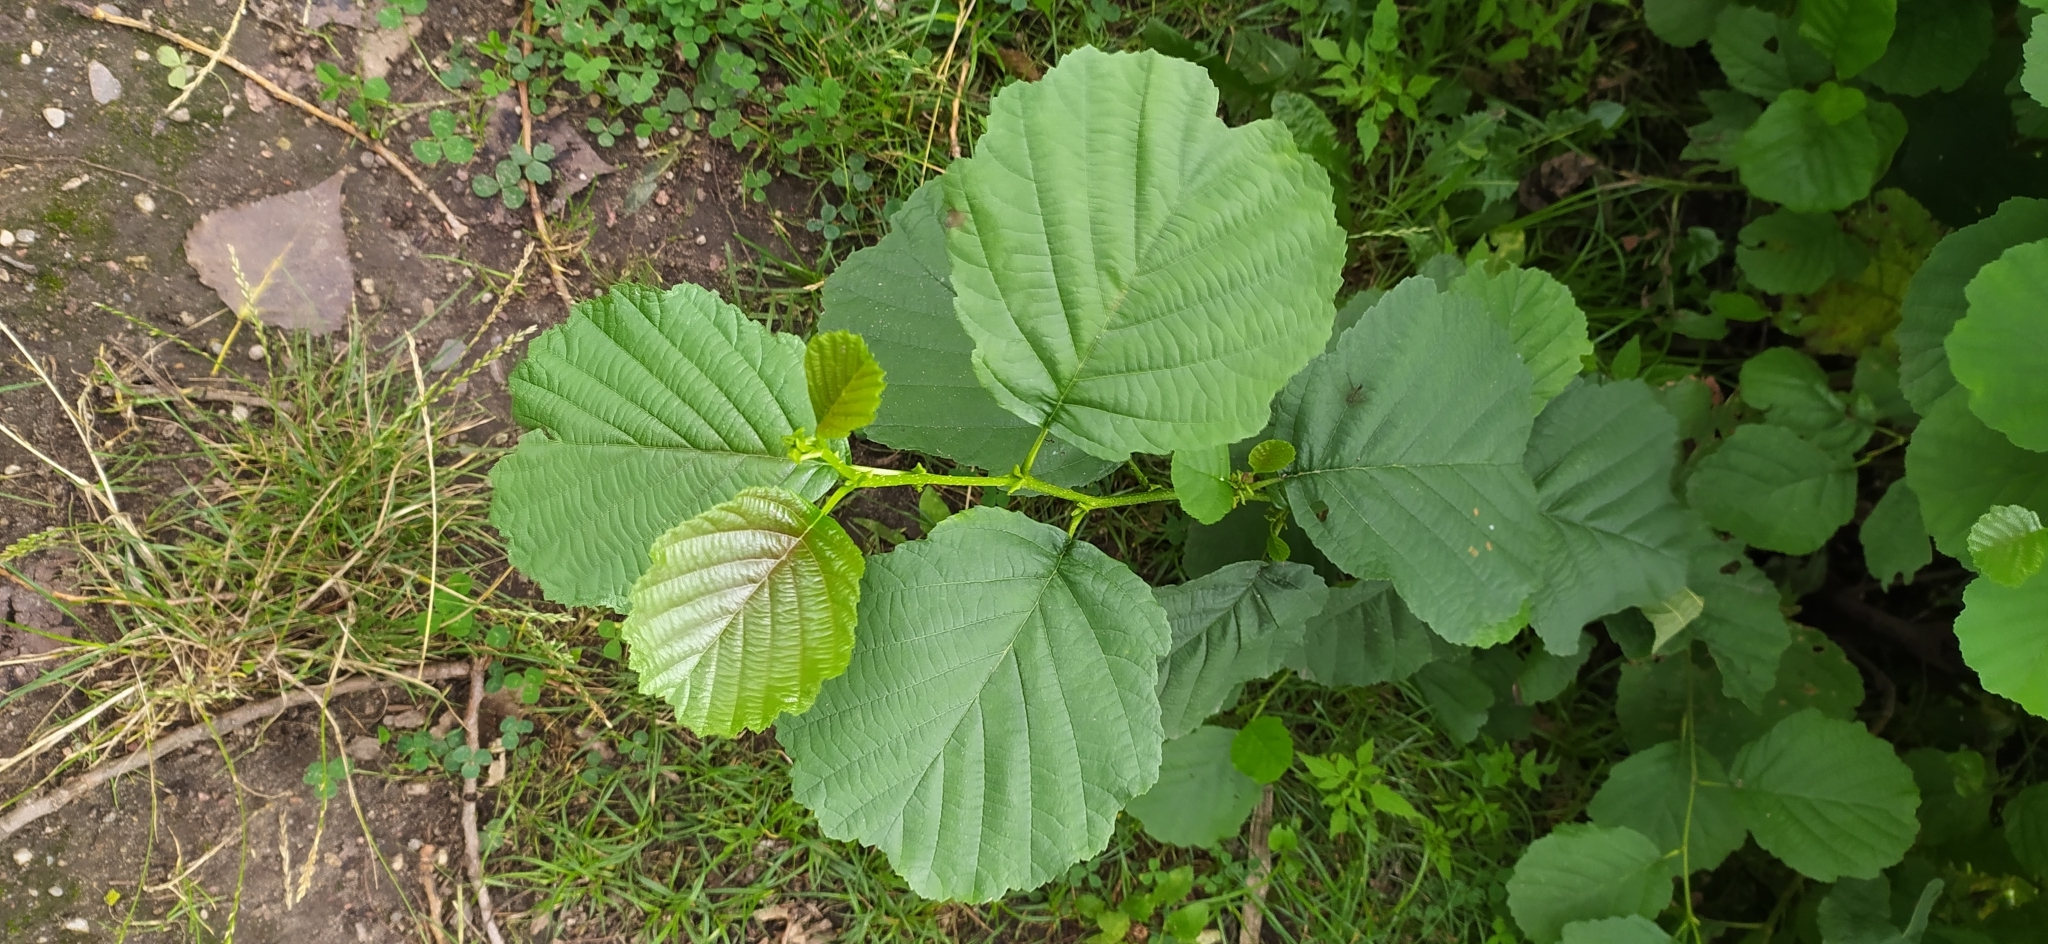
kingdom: Plantae
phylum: Tracheophyta
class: Magnoliopsida
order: Fagales
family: Betulaceae
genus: Alnus
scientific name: Alnus glutinosa
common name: Black alder
